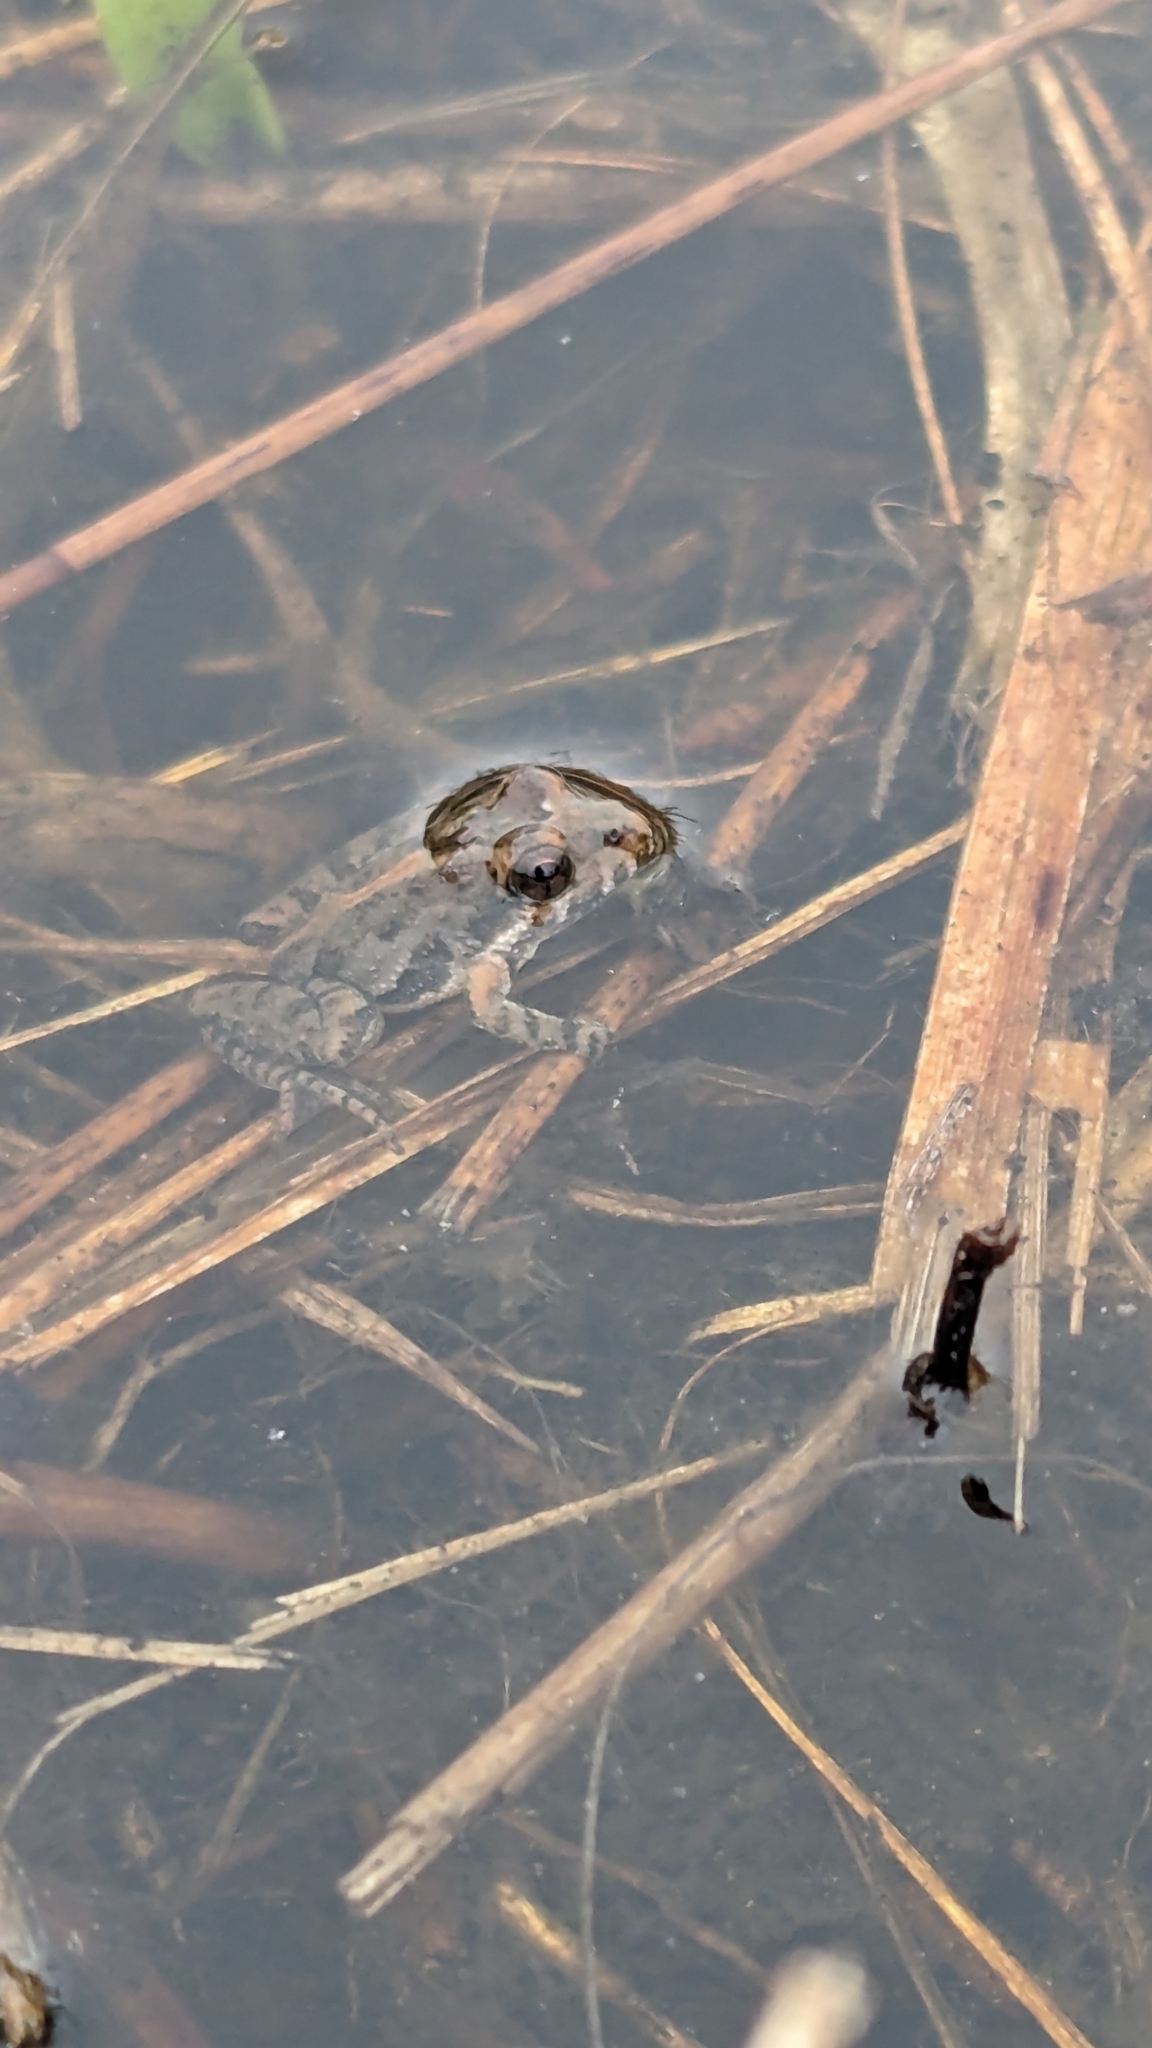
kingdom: Animalia
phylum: Chordata
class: Amphibia
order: Anura
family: Hylidae
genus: Acris
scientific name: Acris gryllus
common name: Southern cricket frog
